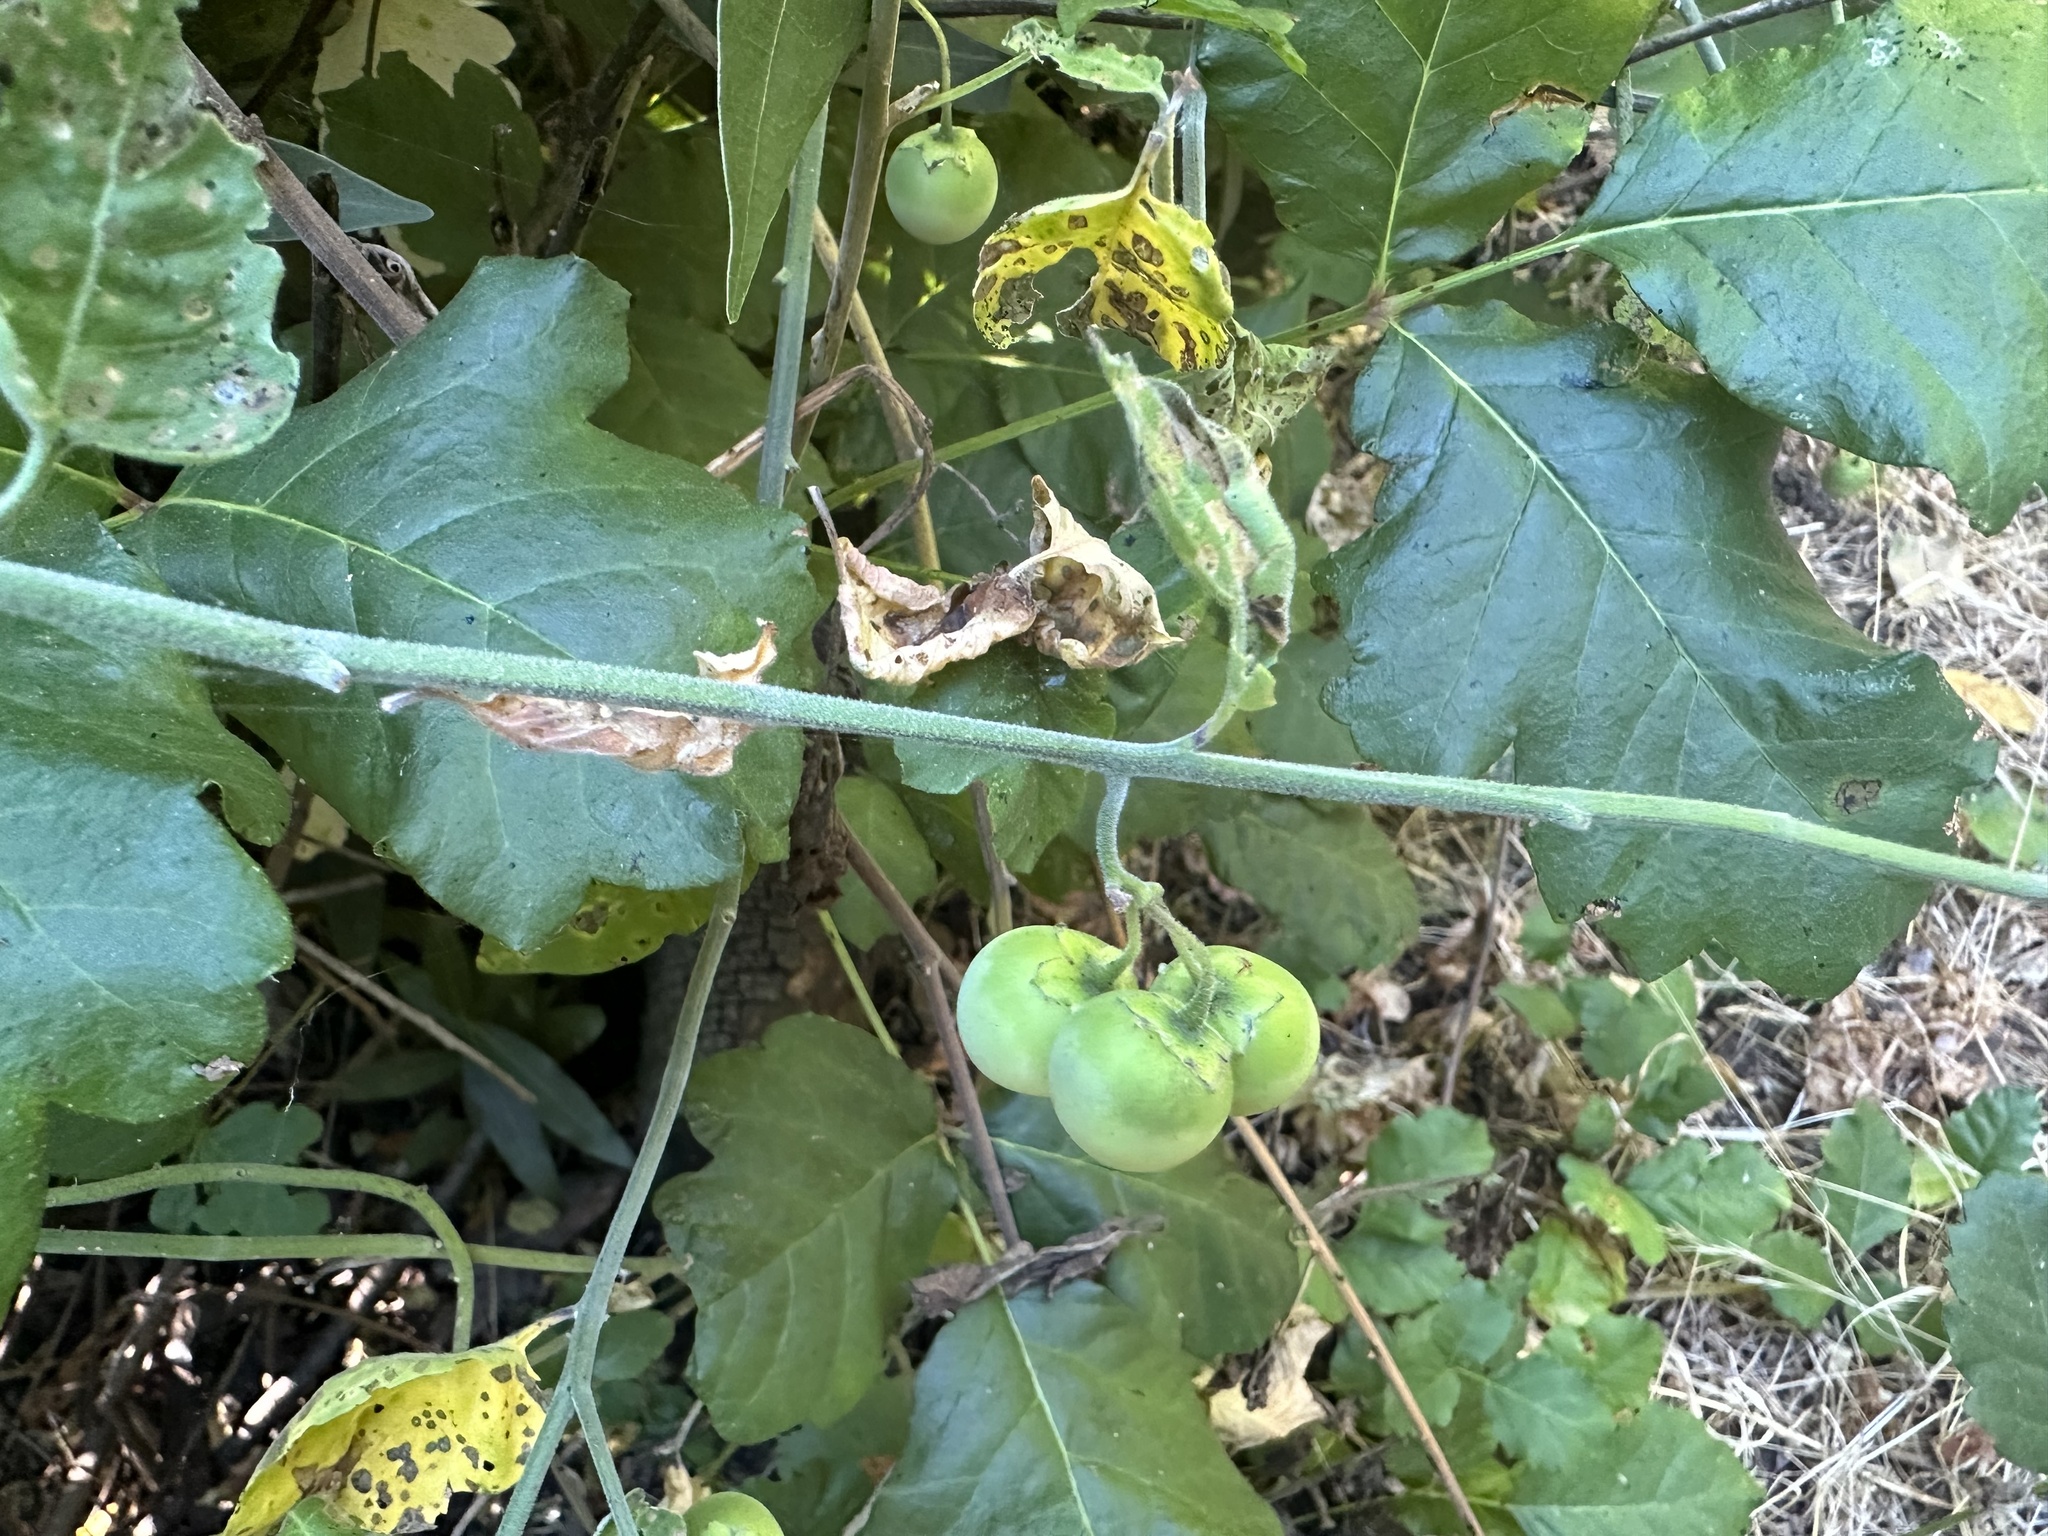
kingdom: Plantae
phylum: Tracheophyta
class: Magnoliopsida
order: Solanales
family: Solanaceae
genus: Solanum
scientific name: Solanum umbelliferum
